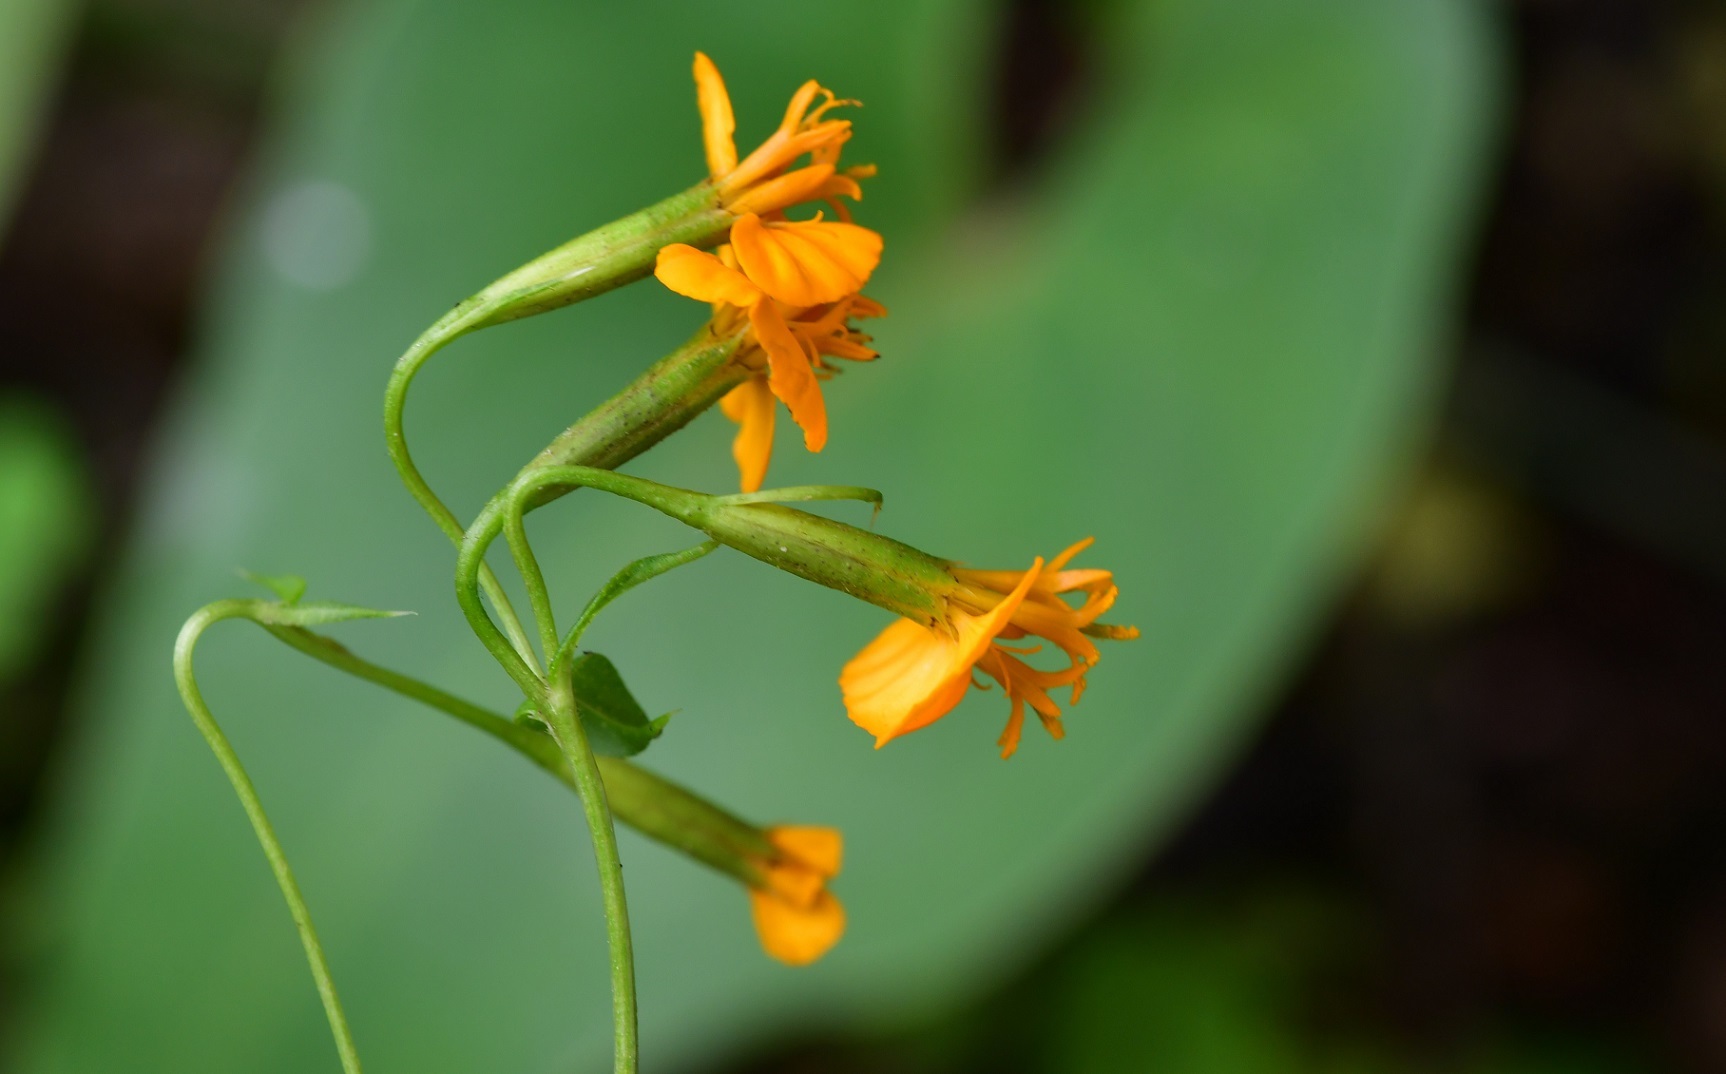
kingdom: Plantae
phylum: Tracheophyta
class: Magnoliopsida
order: Asterales
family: Asteraceae
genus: Tagetes
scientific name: Tagetes lucida
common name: Sweetscented marigold
